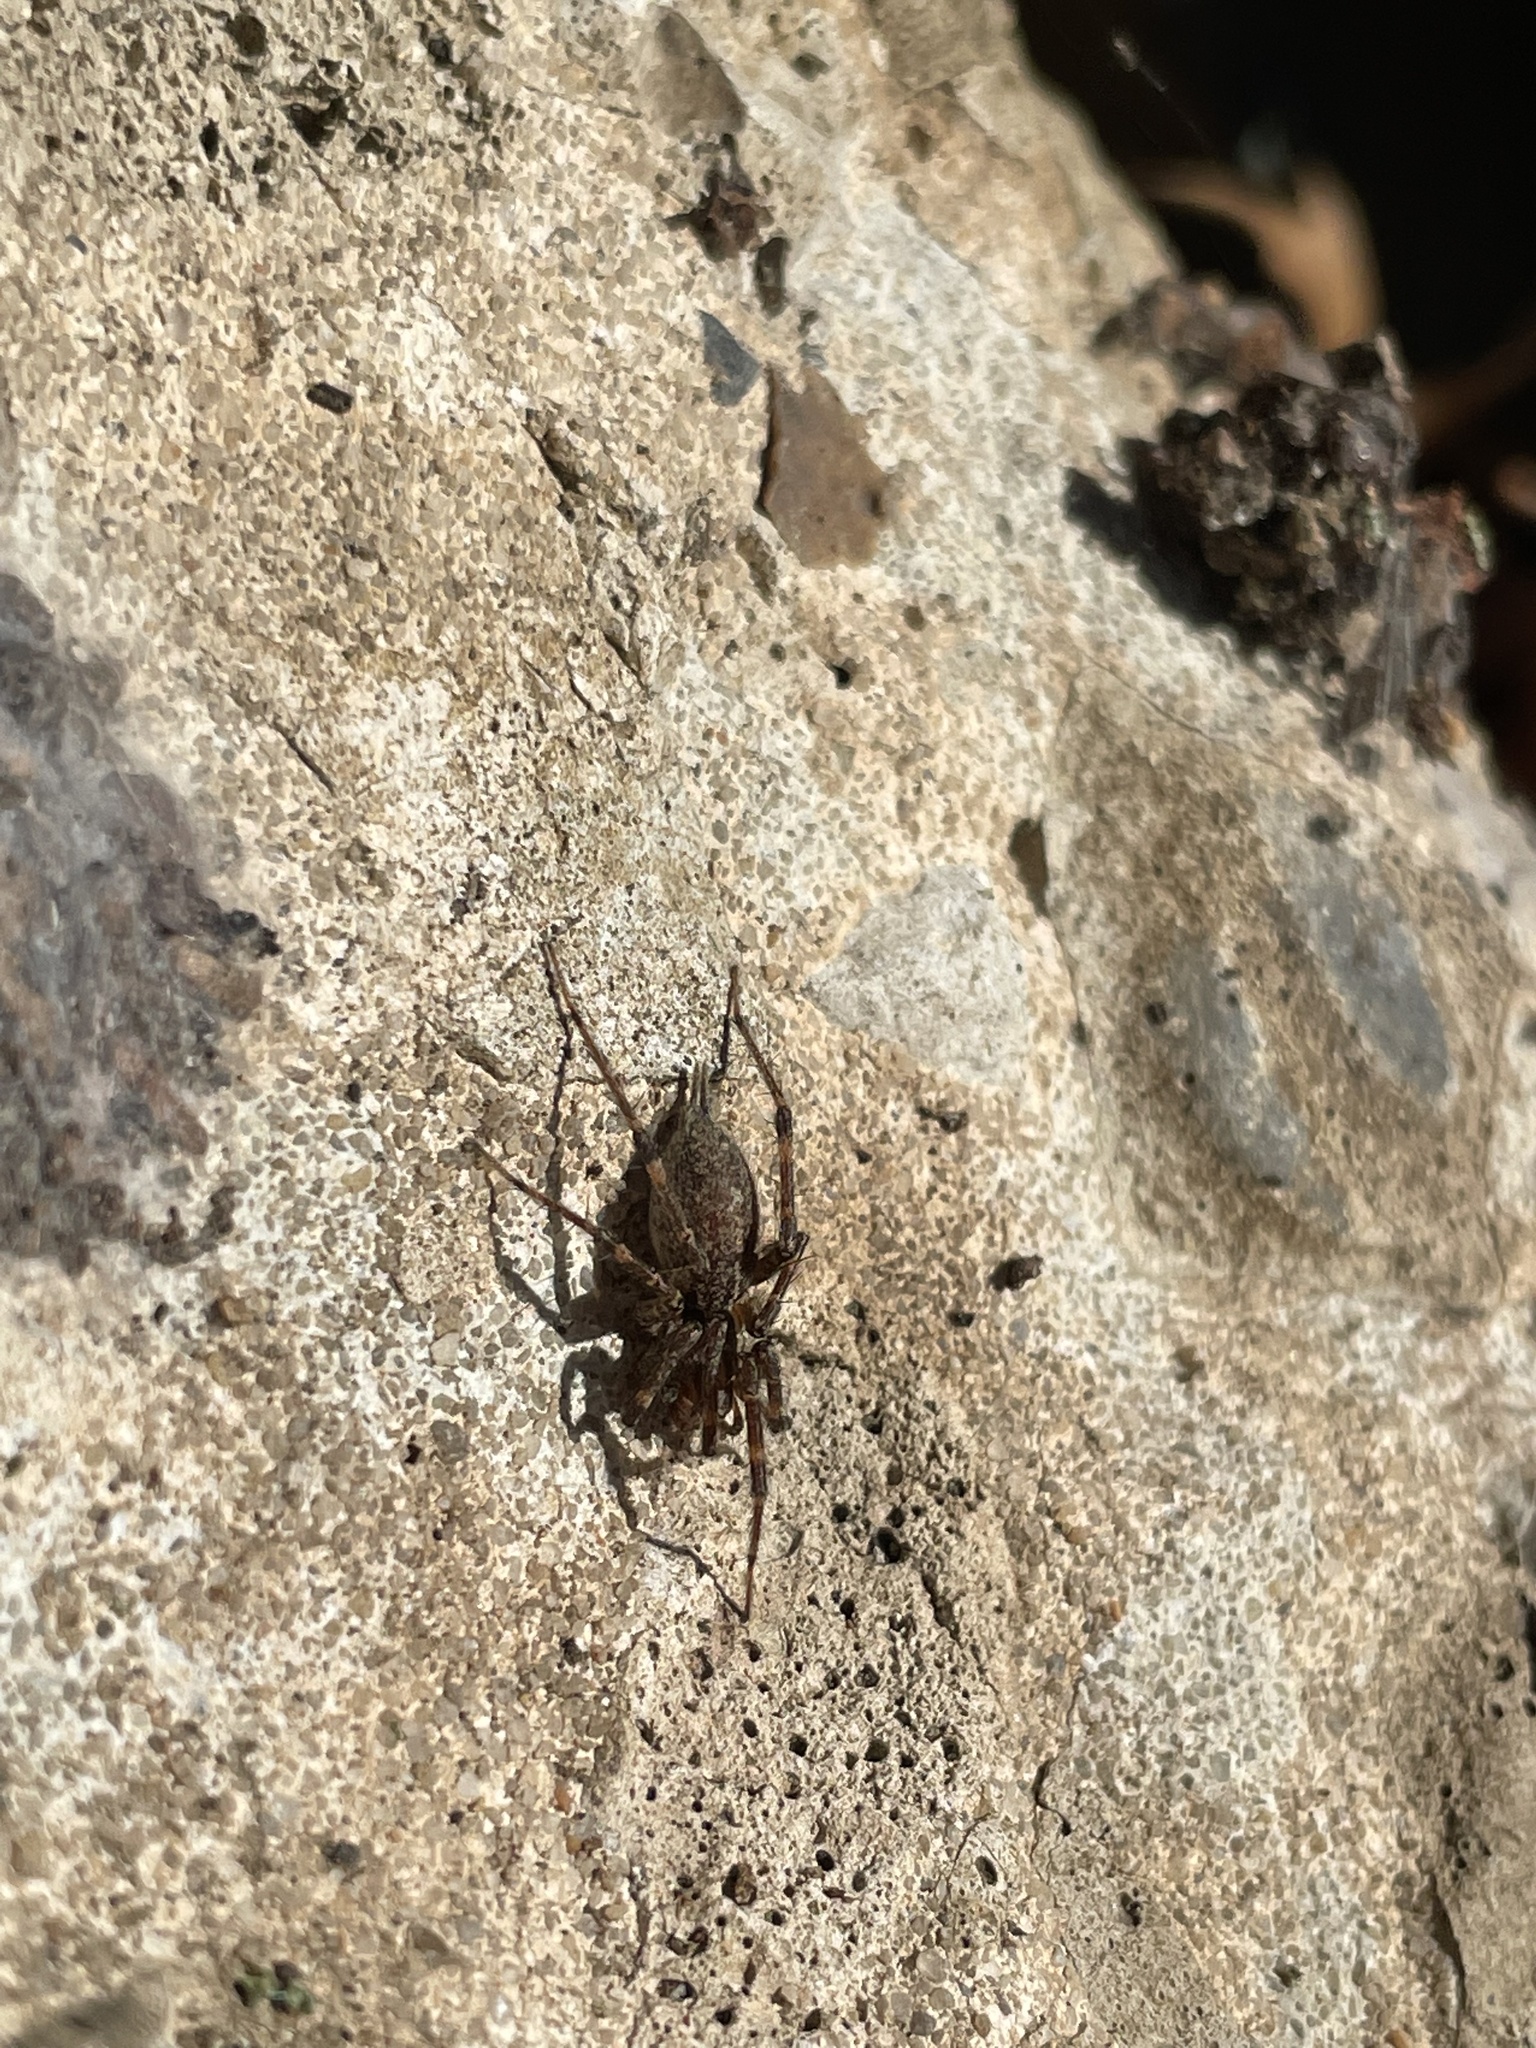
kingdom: Animalia
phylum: Arthropoda
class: Arachnida
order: Araneae
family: Agelenidae
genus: Agelenopsis
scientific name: Agelenopsis
